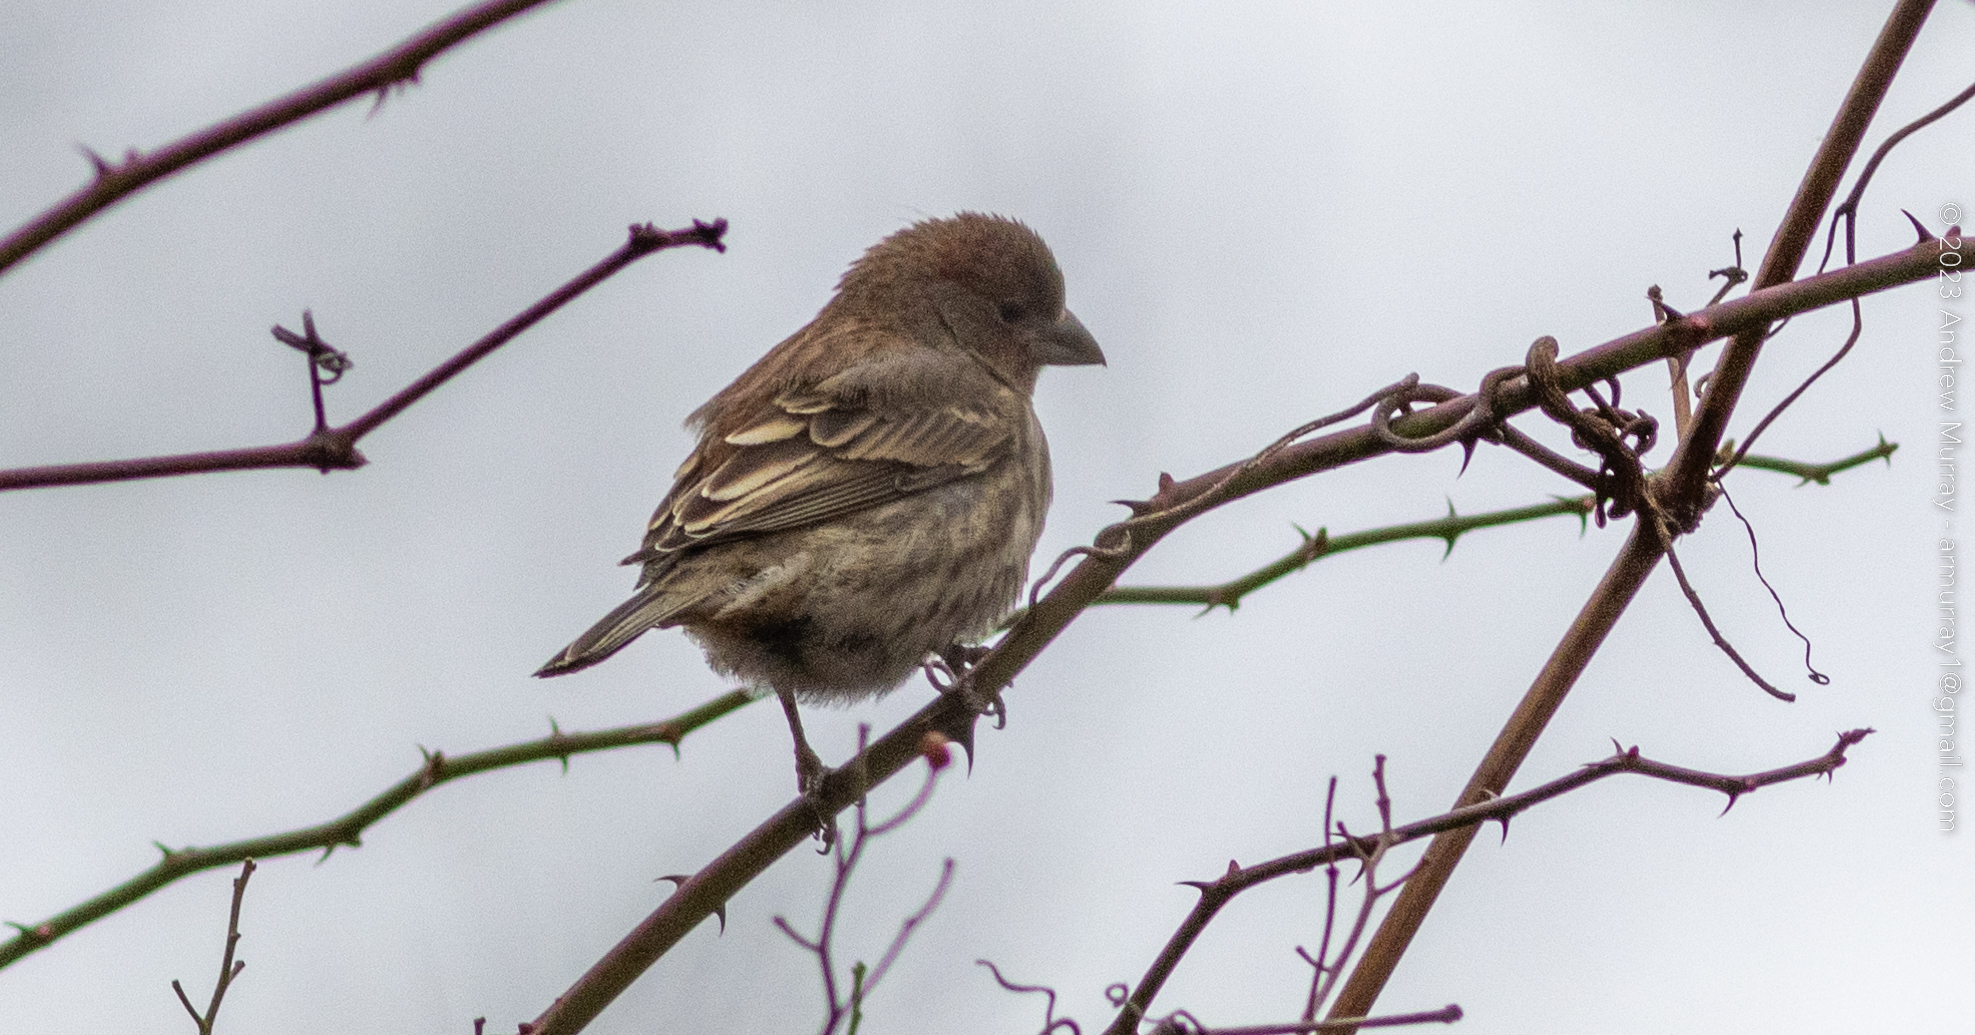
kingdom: Animalia
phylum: Chordata
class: Aves
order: Passeriformes
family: Fringillidae
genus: Haemorhous
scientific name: Haemorhous mexicanus
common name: House finch
